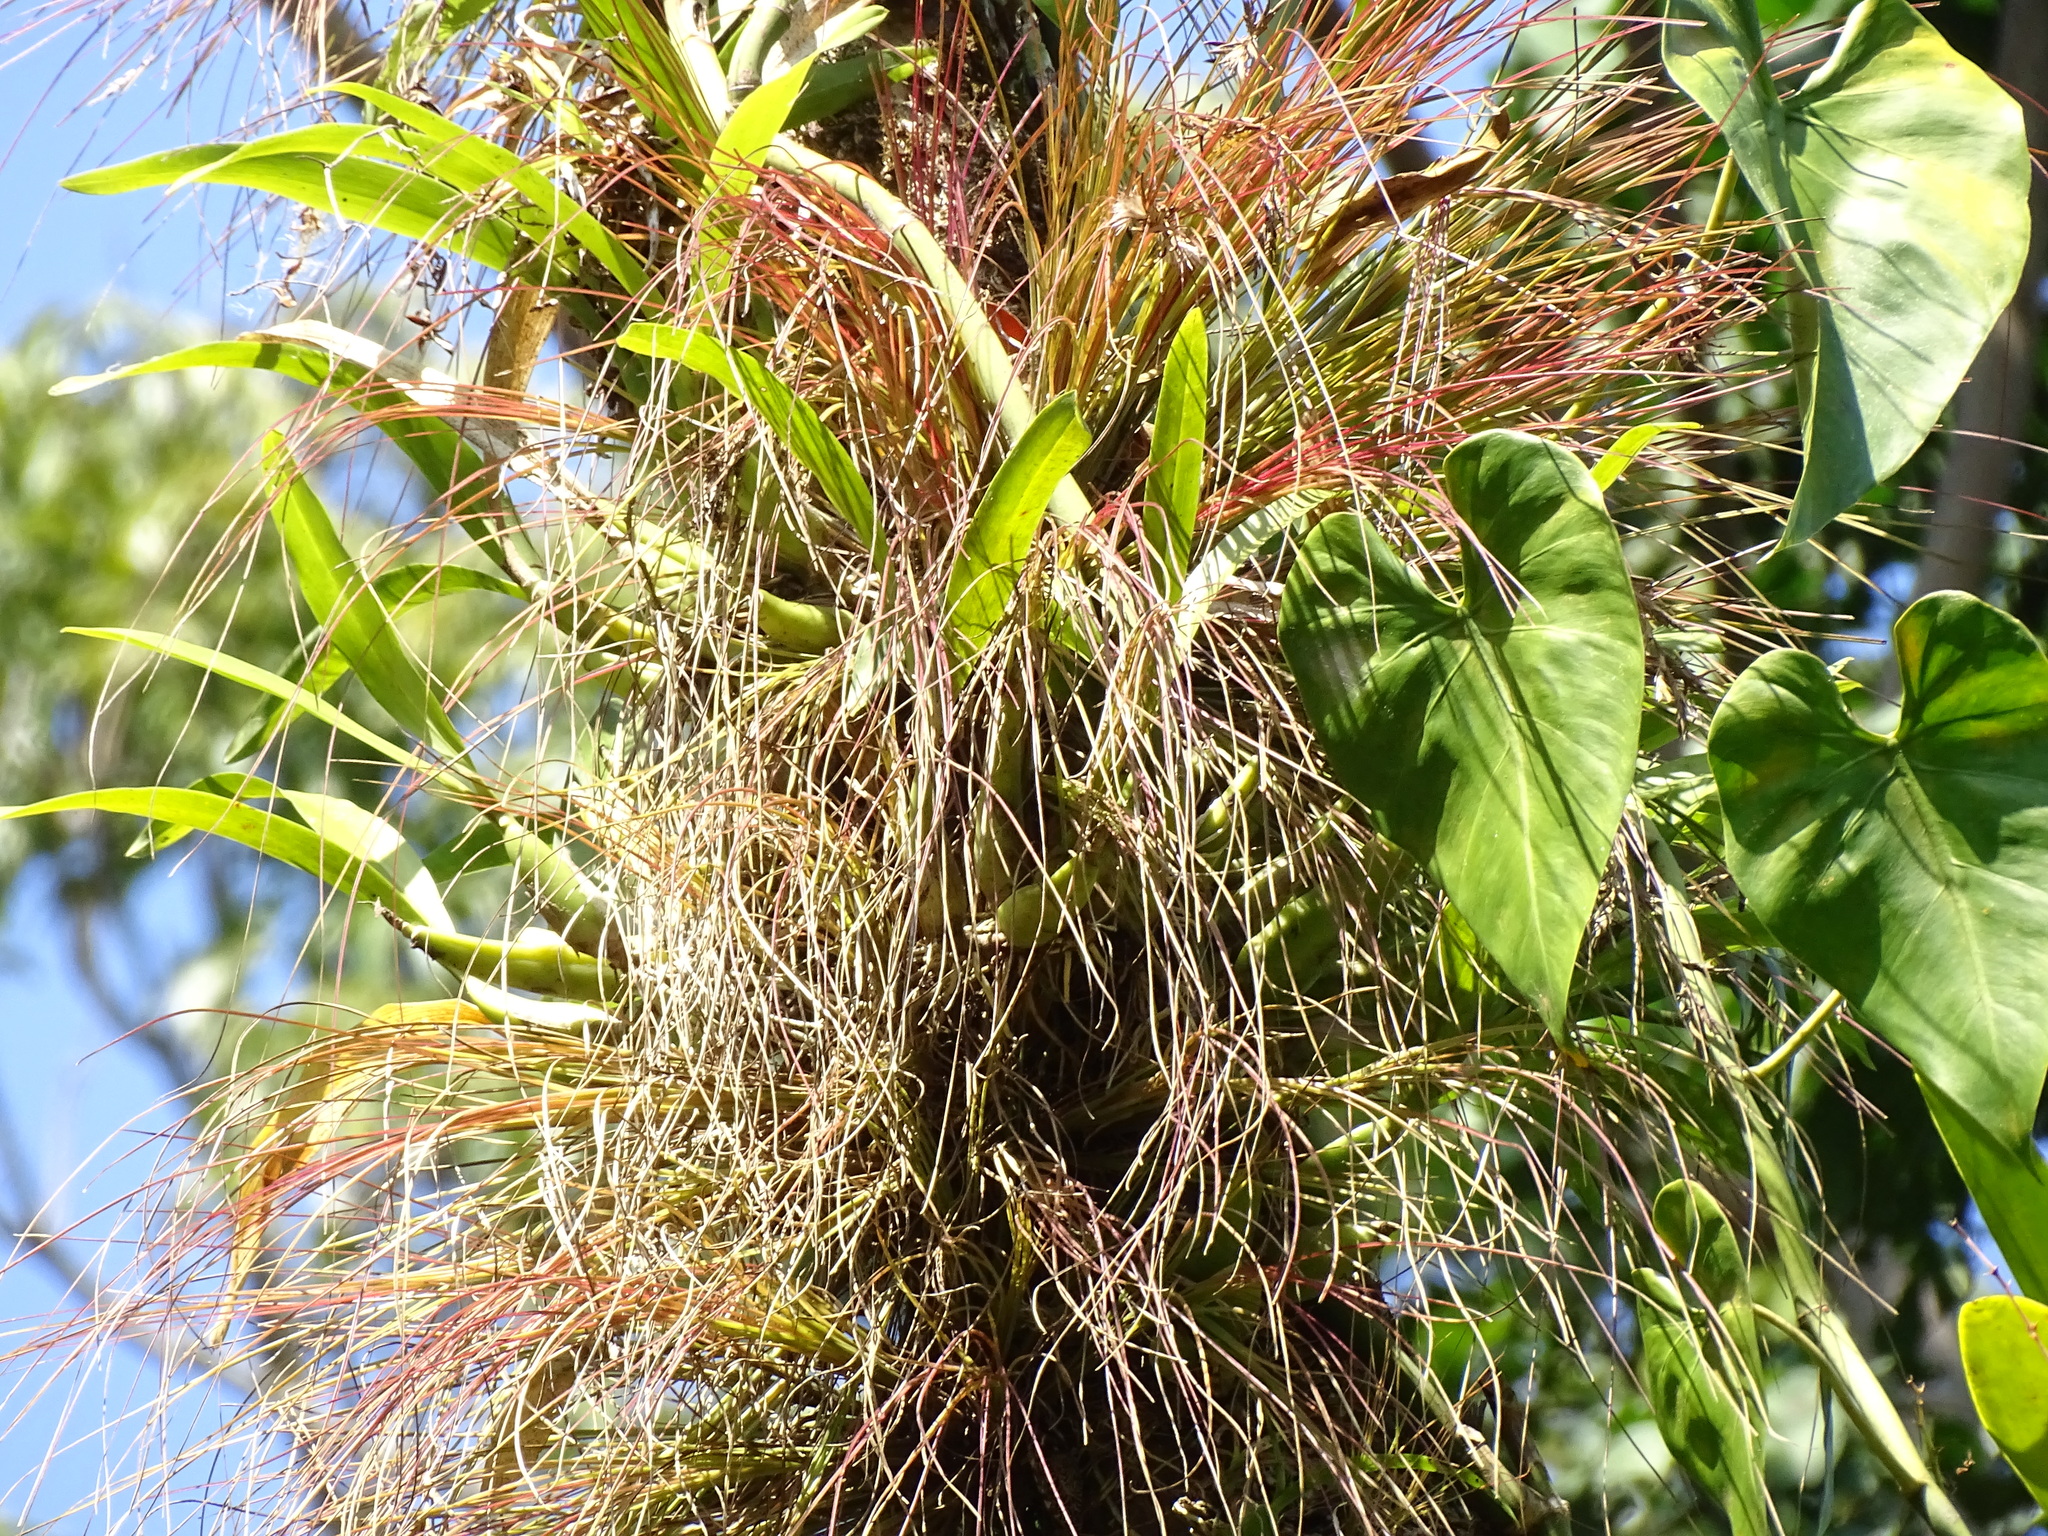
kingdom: Plantae
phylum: Tracheophyta
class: Liliopsida
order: Poales
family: Bromeliaceae
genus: Tillandsia
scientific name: Tillandsia eistetteri
